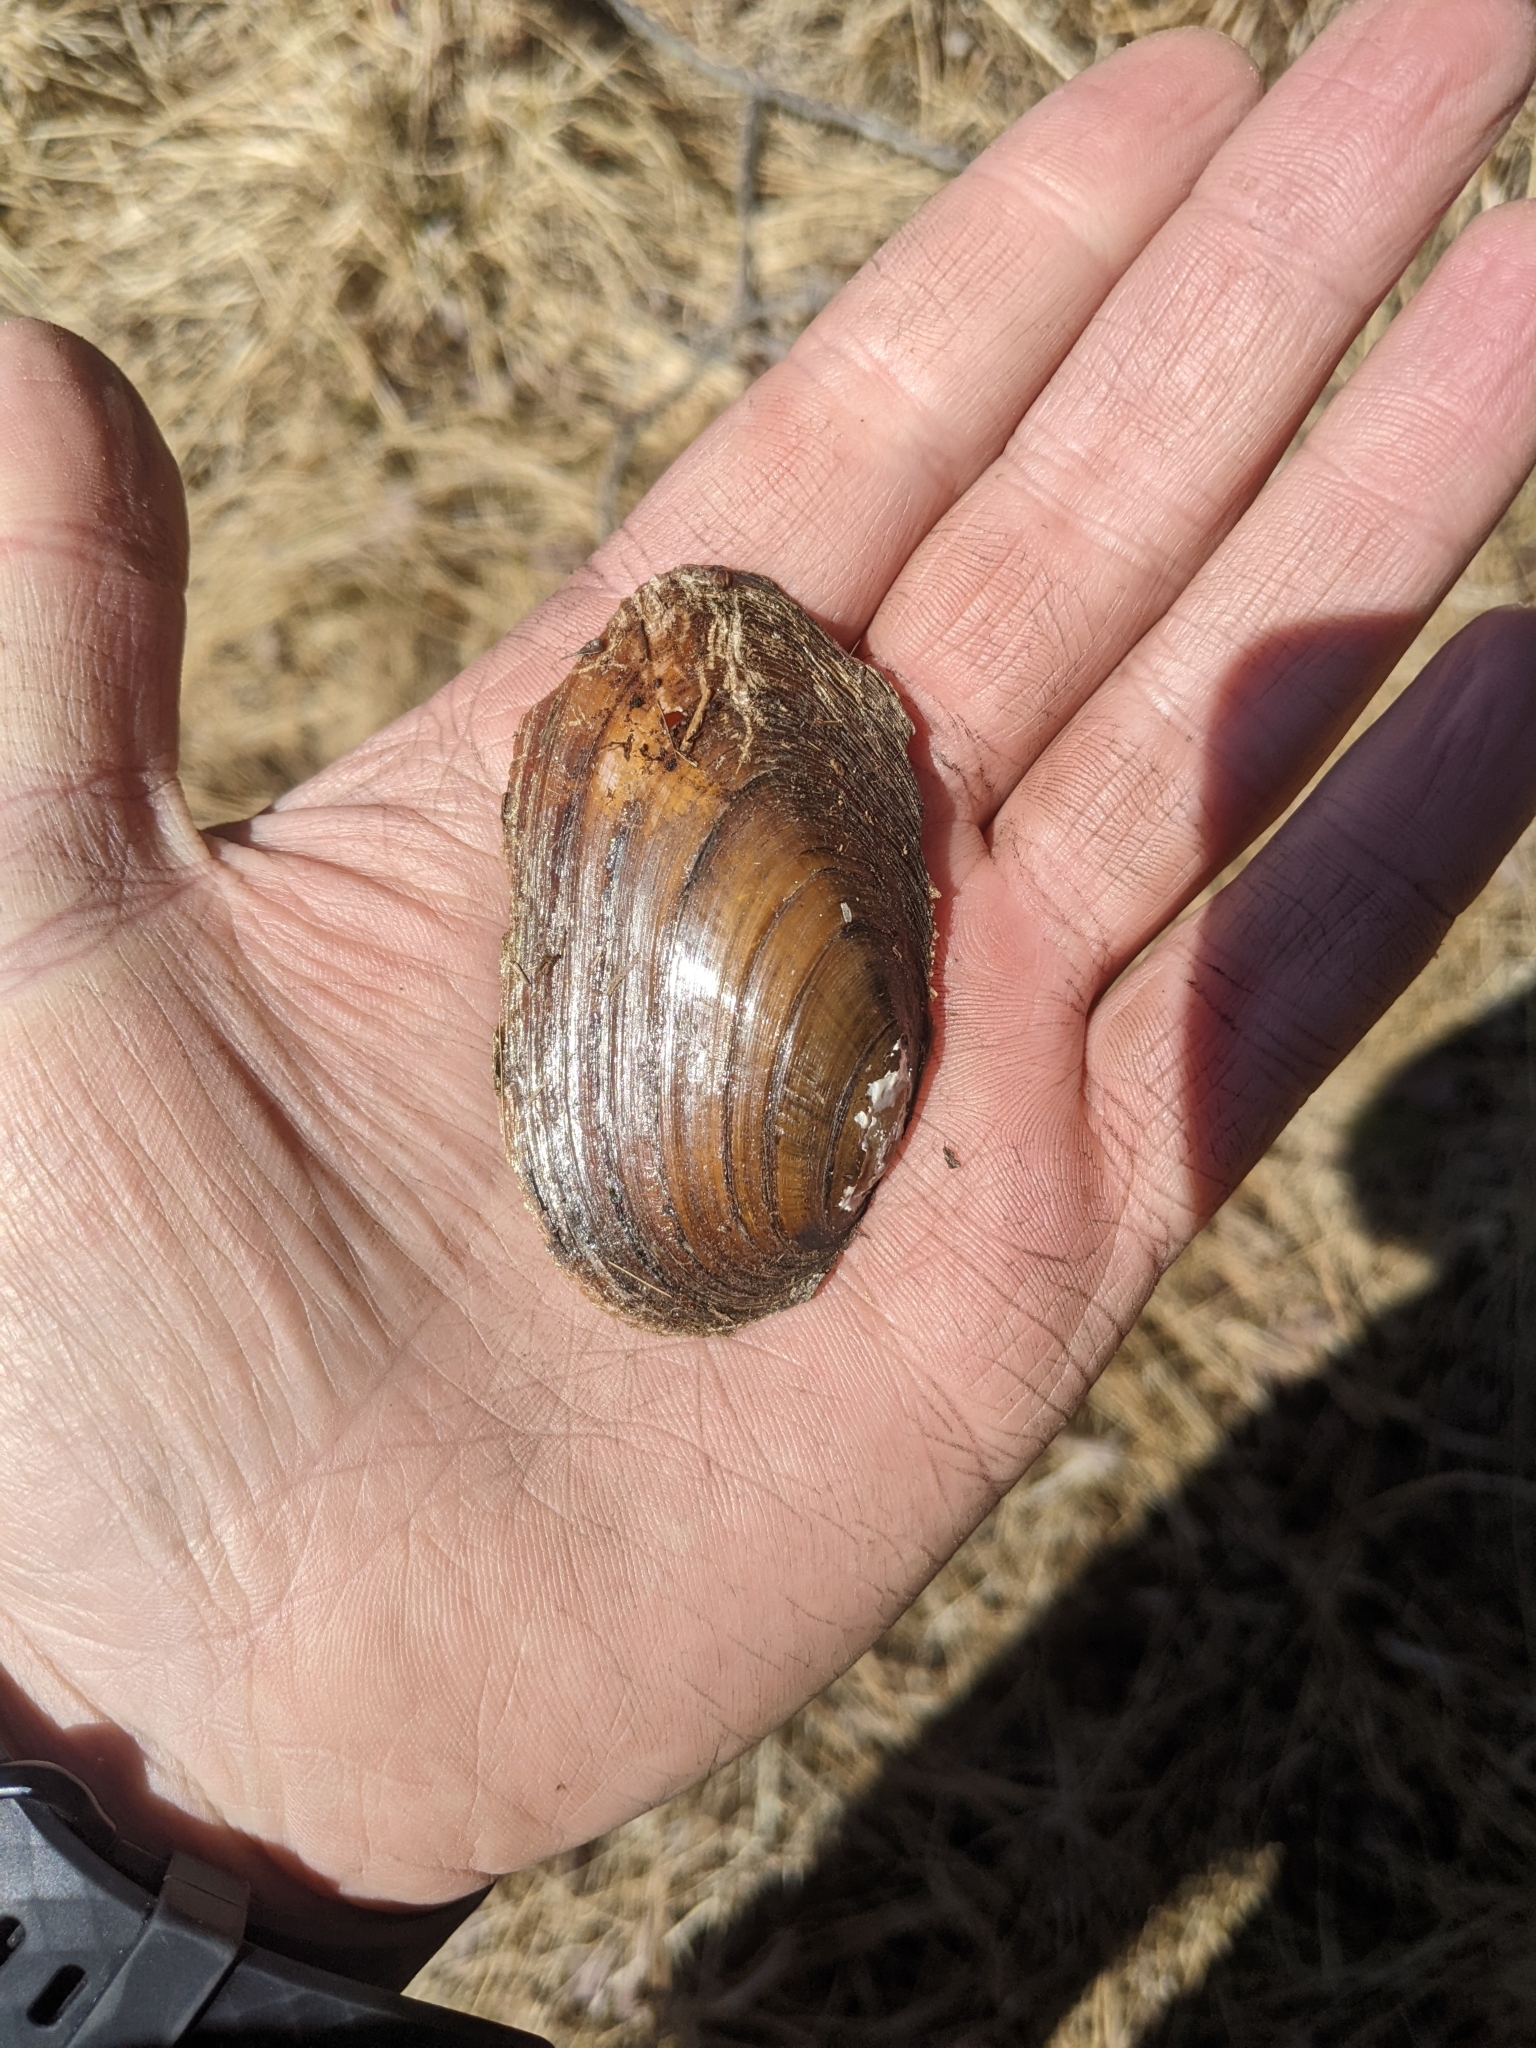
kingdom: Animalia
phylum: Mollusca
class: Bivalvia
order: Unionida
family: Unionidae
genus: Elliptio
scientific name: Elliptio complanata
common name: Eastern elliptio
